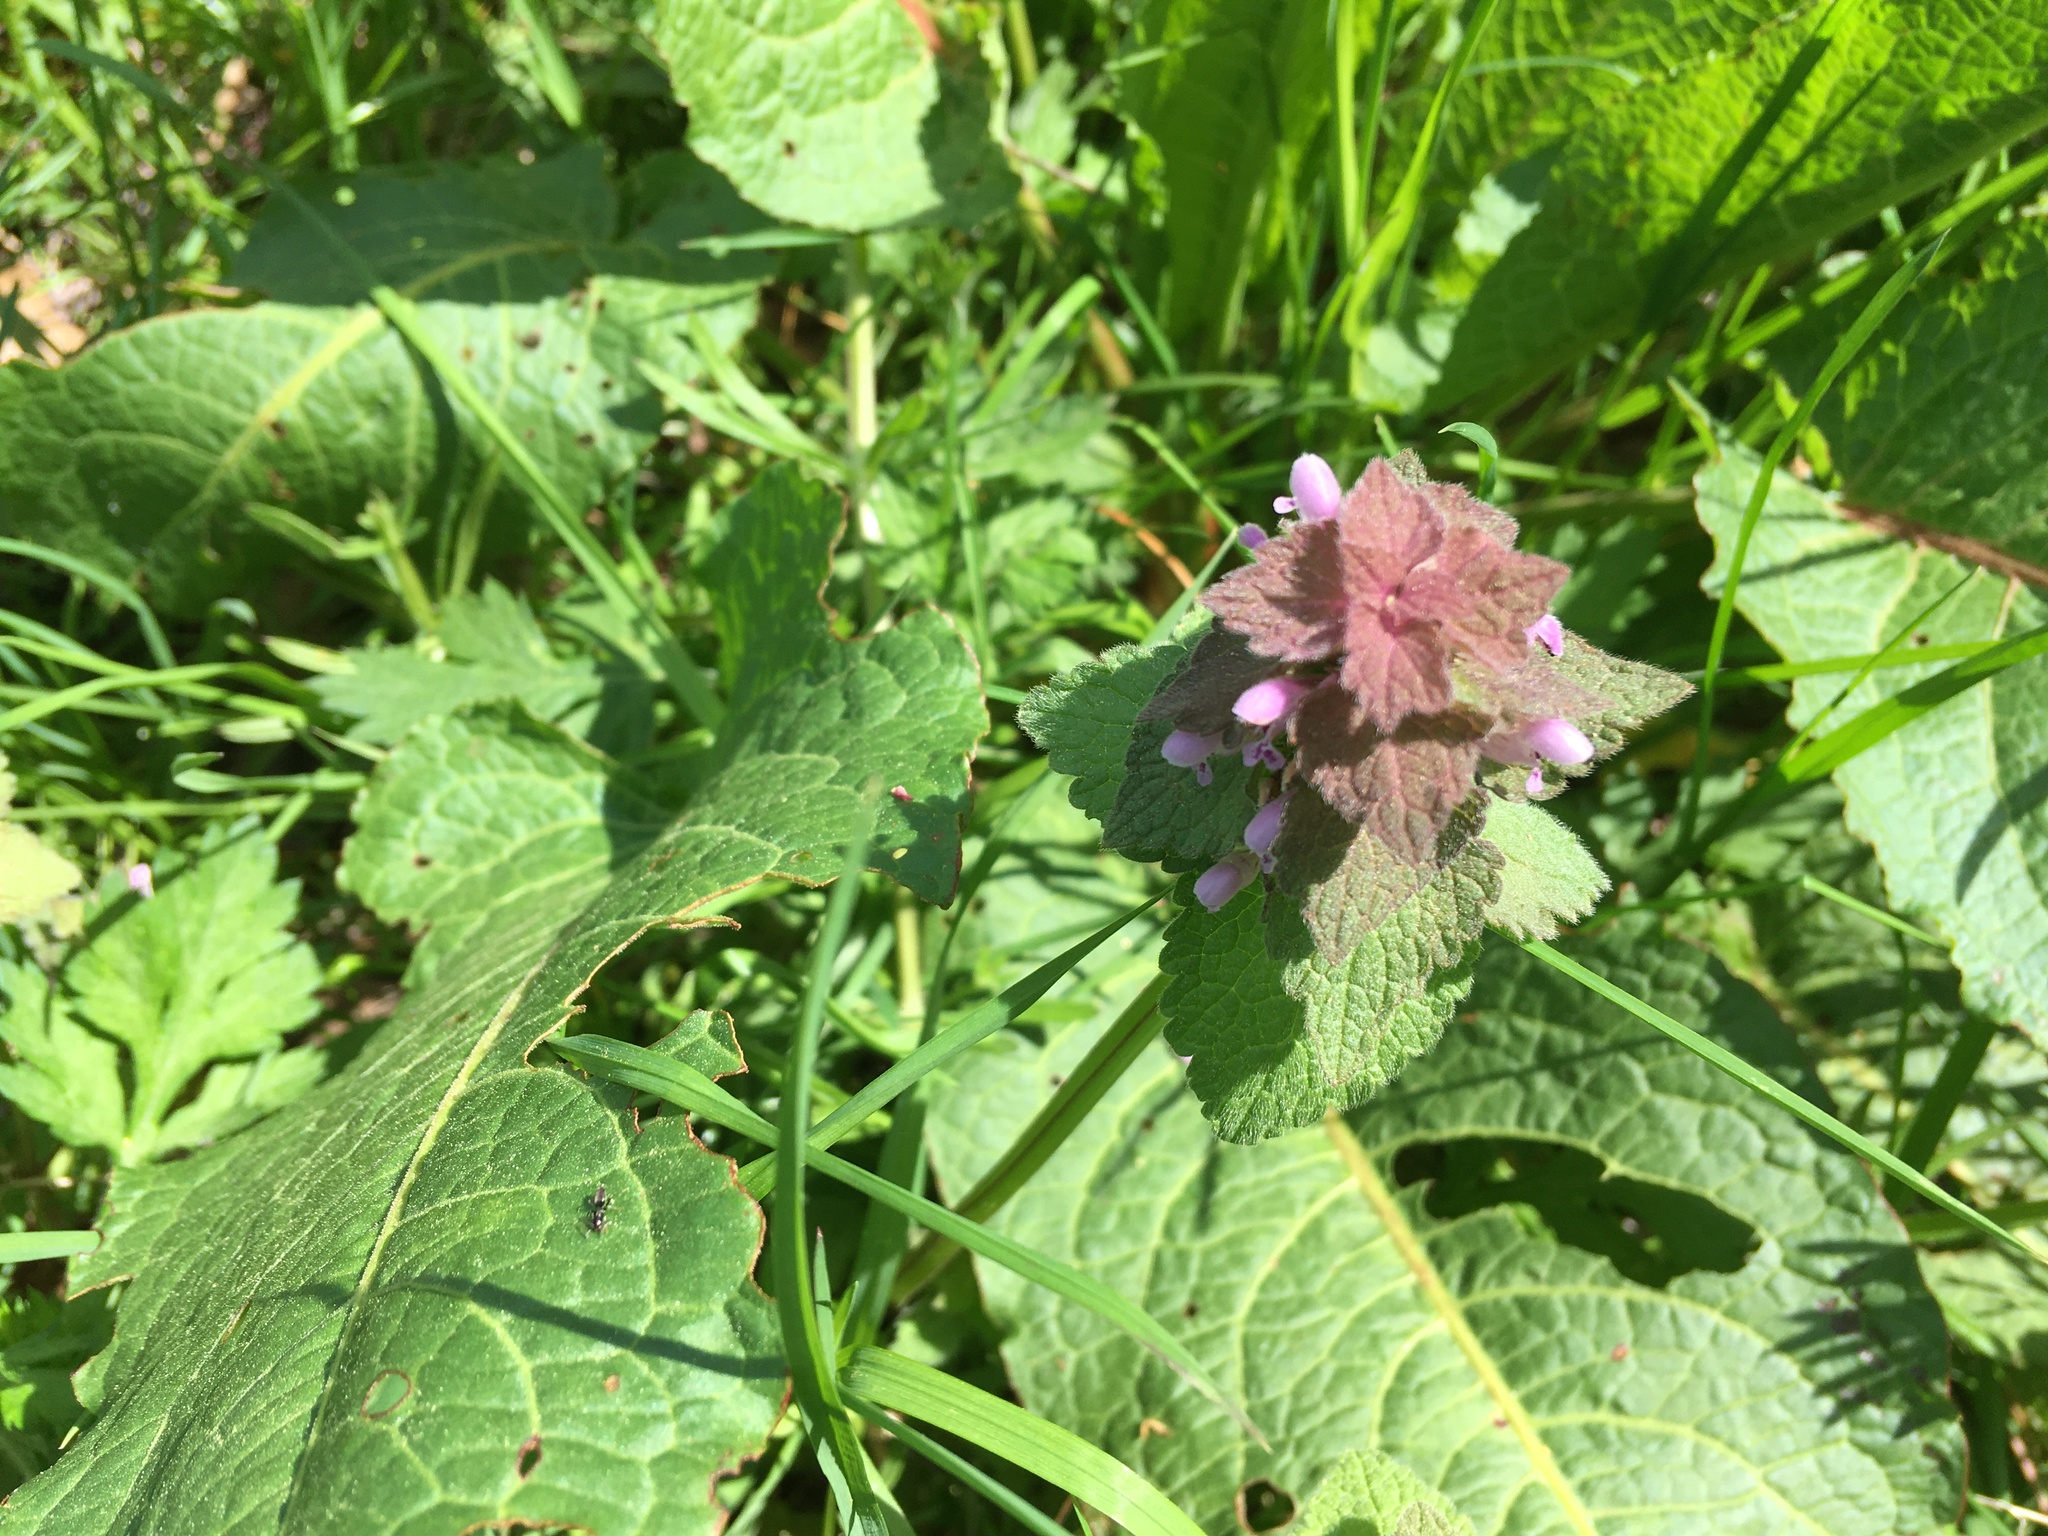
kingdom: Plantae
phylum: Tracheophyta
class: Magnoliopsida
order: Lamiales
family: Lamiaceae
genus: Lamium
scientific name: Lamium purpureum
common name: Red dead-nettle
